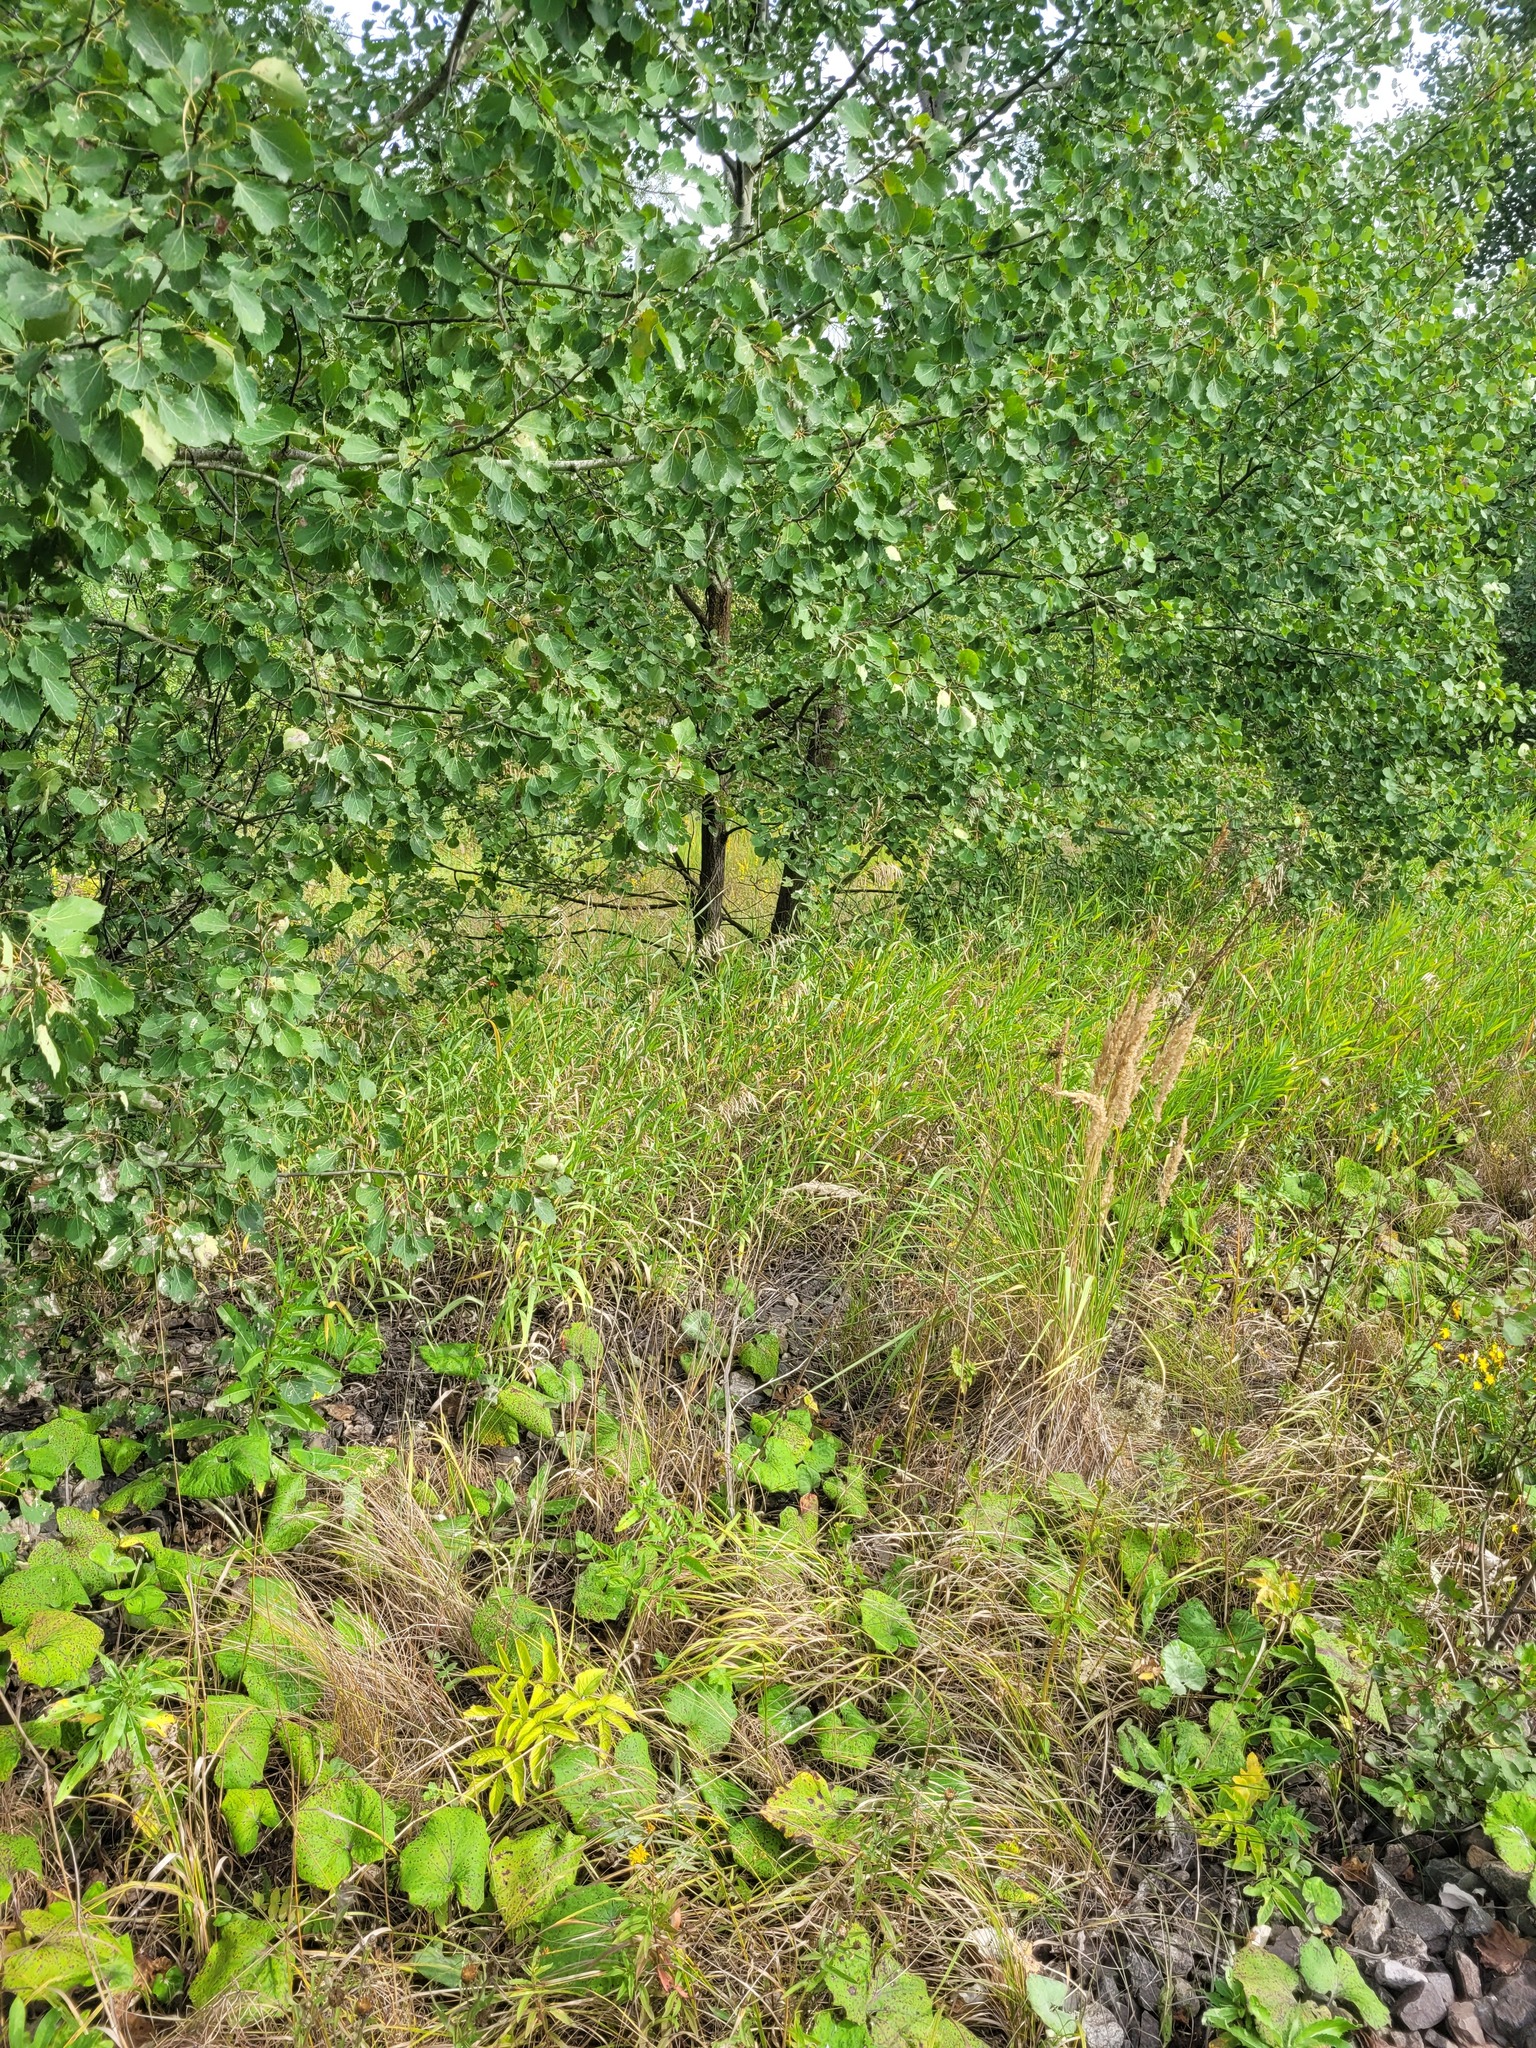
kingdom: Plantae
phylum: Tracheophyta
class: Liliopsida
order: Poales
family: Poaceae
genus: Bromus
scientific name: Bromus inermis
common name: Smooth brome
